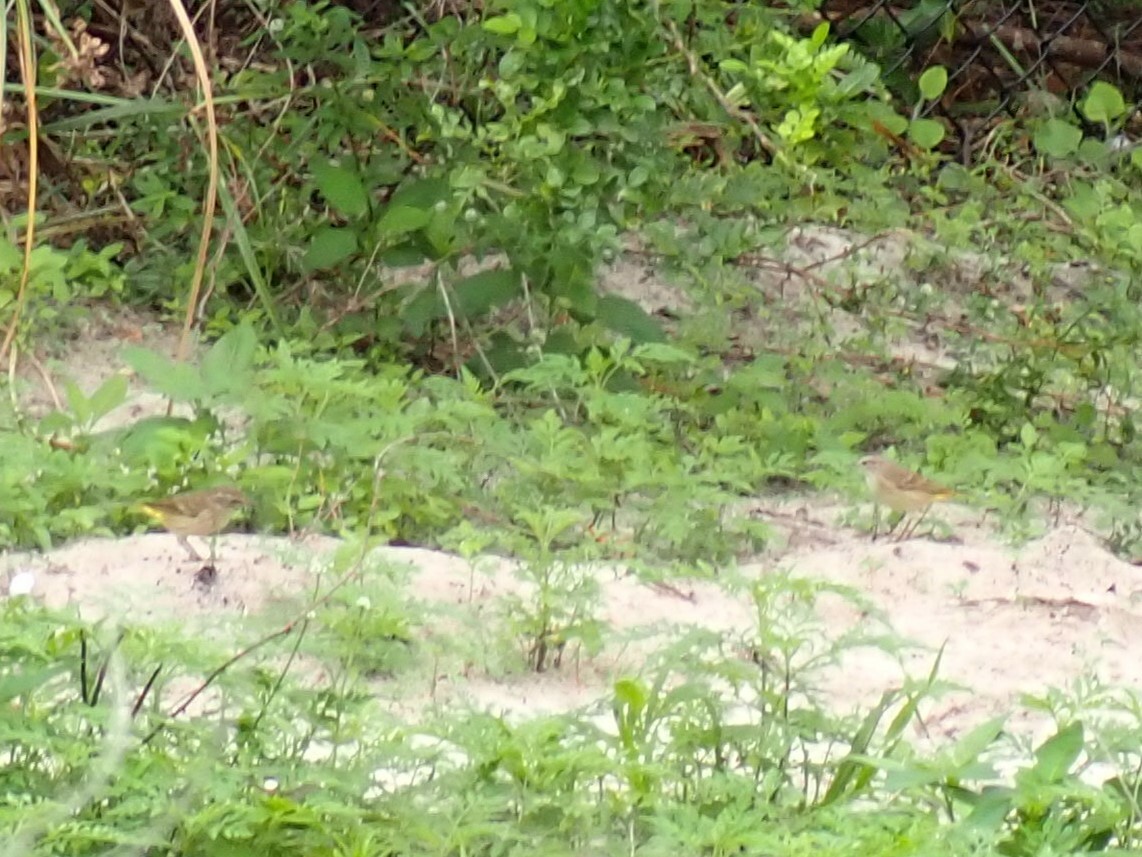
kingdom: Animalia
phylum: Chordata
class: Aves
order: Passeriformes
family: Parulidae
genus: Setophaga
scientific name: Setophaga palmarum
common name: Palm warbler
